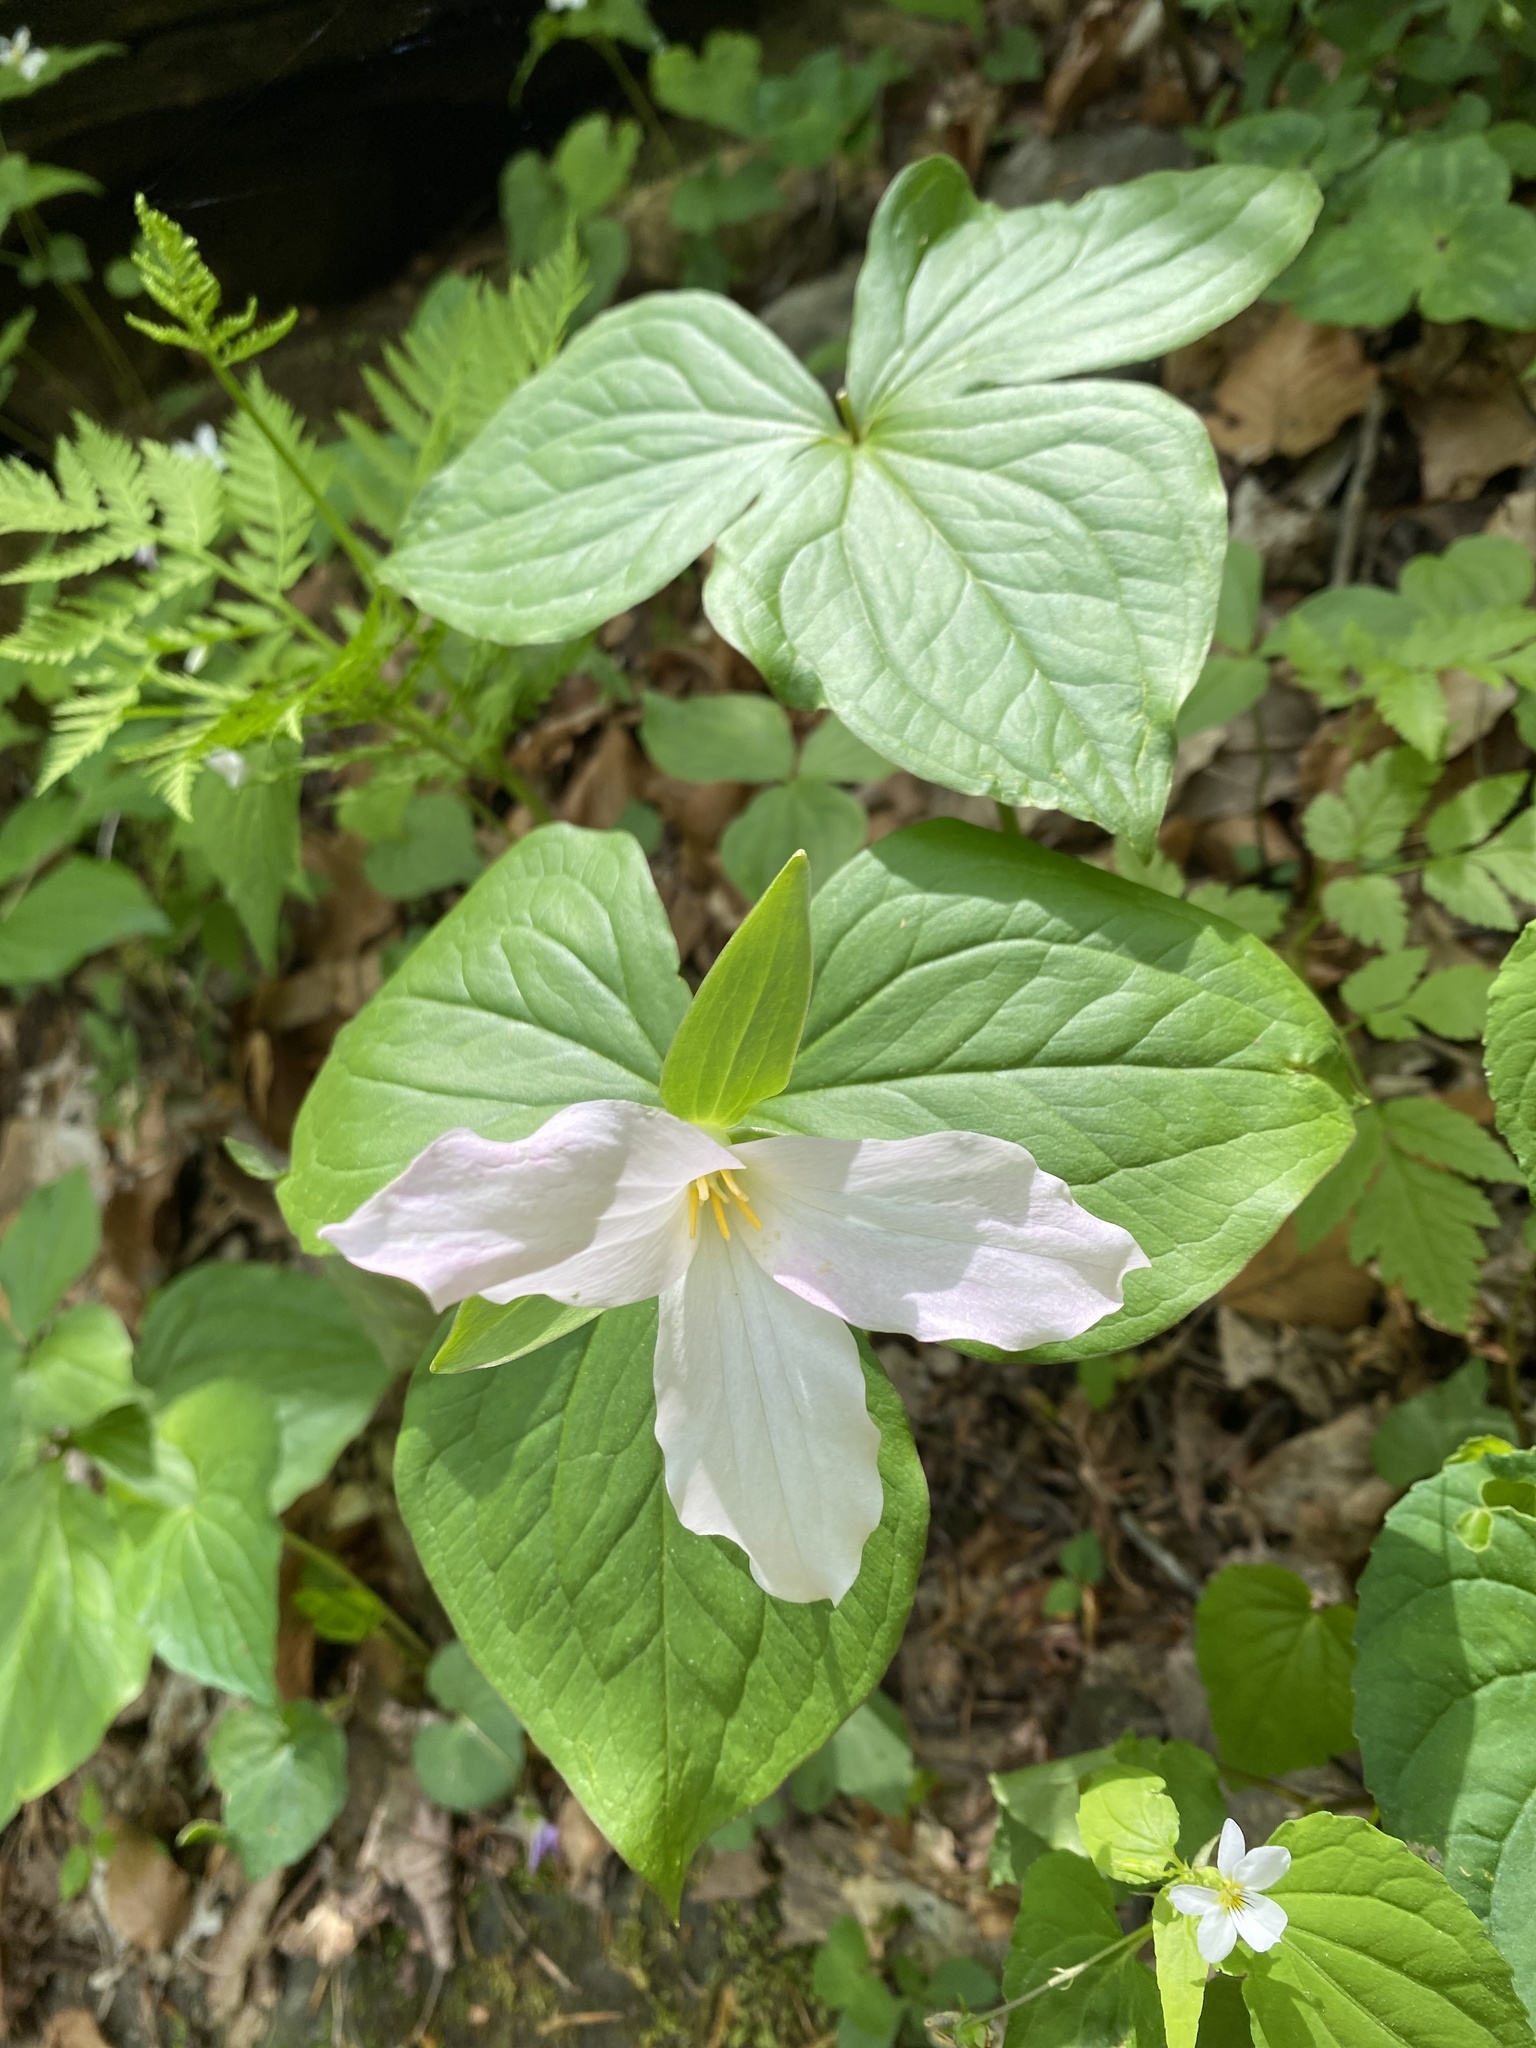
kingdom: Plantae
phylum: Tracheophyta
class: Liliopsida
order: Liliales
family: Melanthiaceae
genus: Trillium
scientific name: Trillium grandiflorum
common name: Great white trillium
